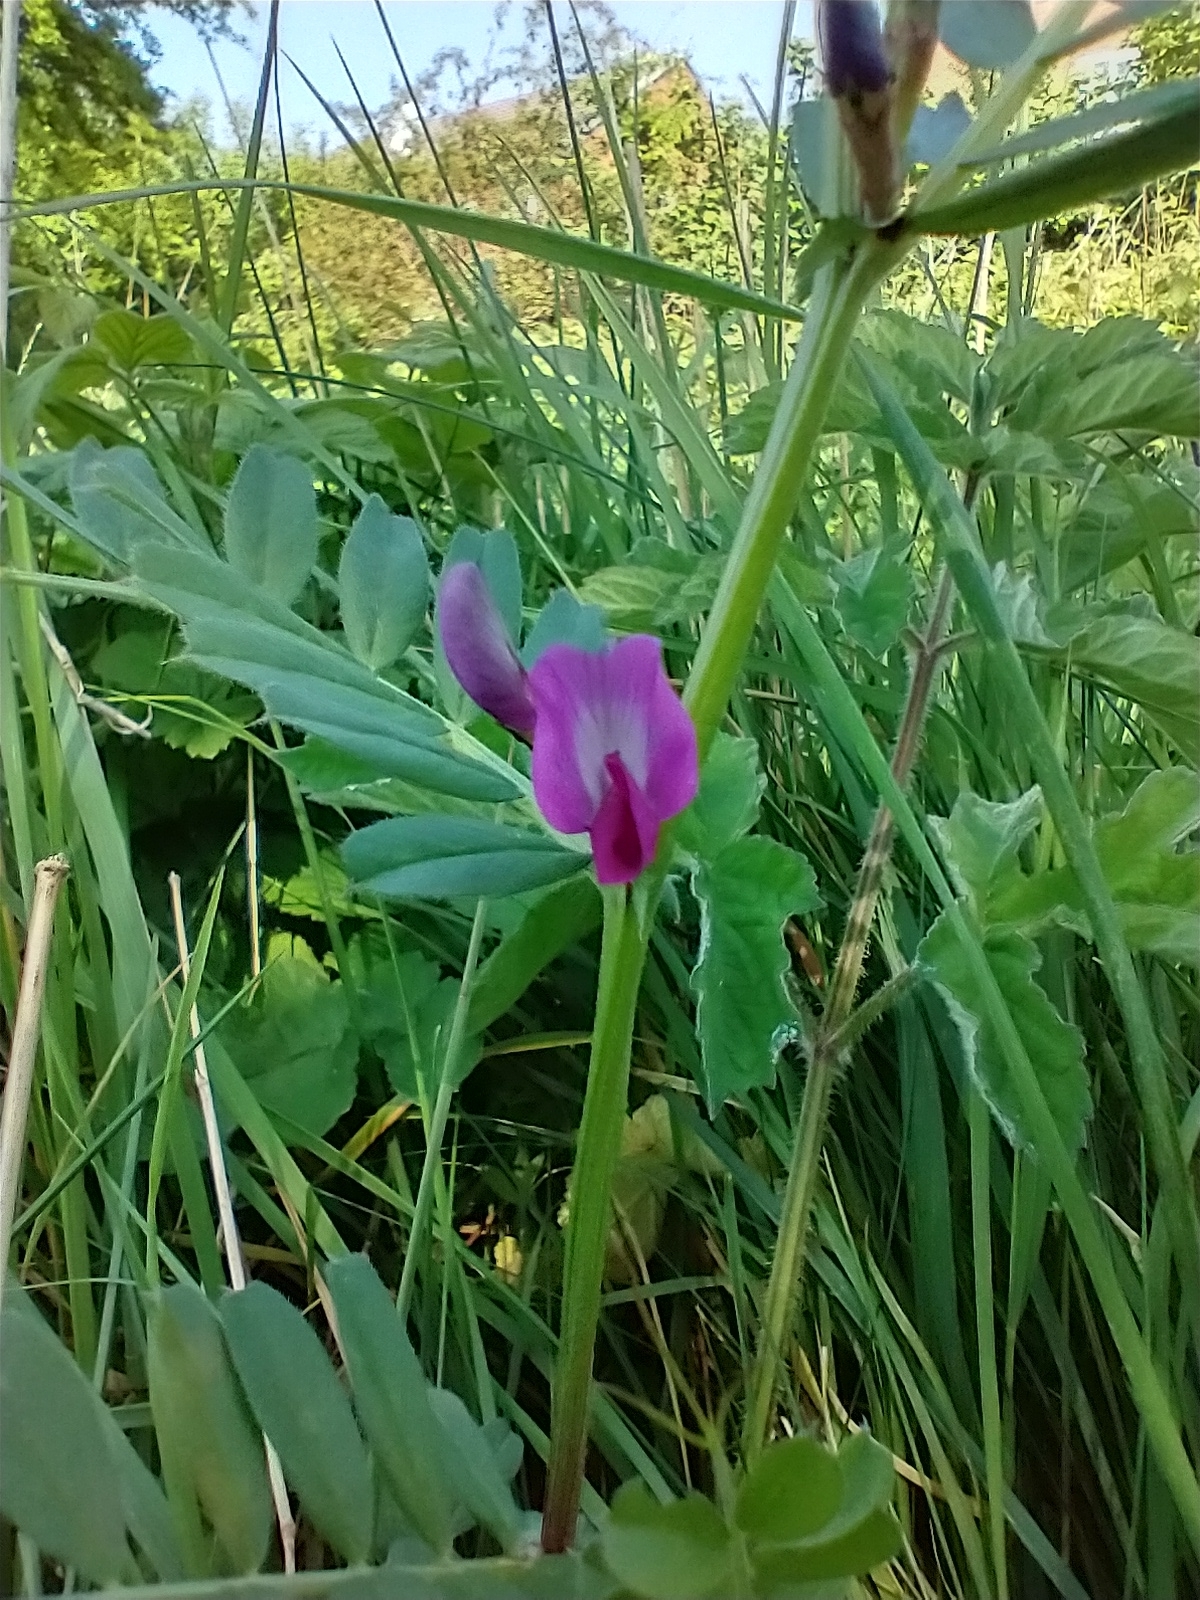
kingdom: Plantae
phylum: Tracheophyta
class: Magnoliopsida
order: Fabales
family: Fabaceae
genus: Vicia
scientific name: Vicia sativa
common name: Garden vetch
